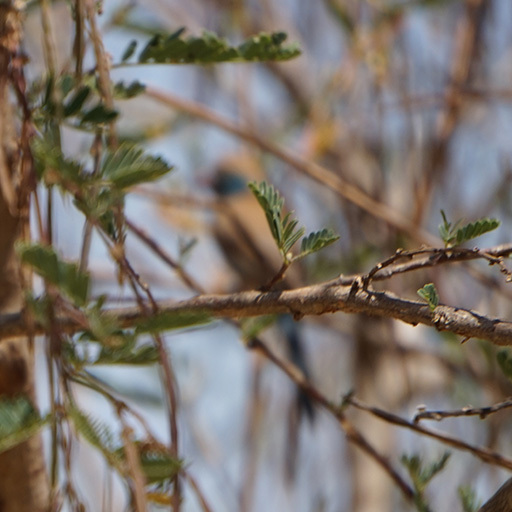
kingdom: Animalia
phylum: Chordata
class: Aves
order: Passeriformes
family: Estrildidae
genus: Uraeginthus
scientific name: Uraeginthus bengalus
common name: Red-cheeked cordon-bleu
